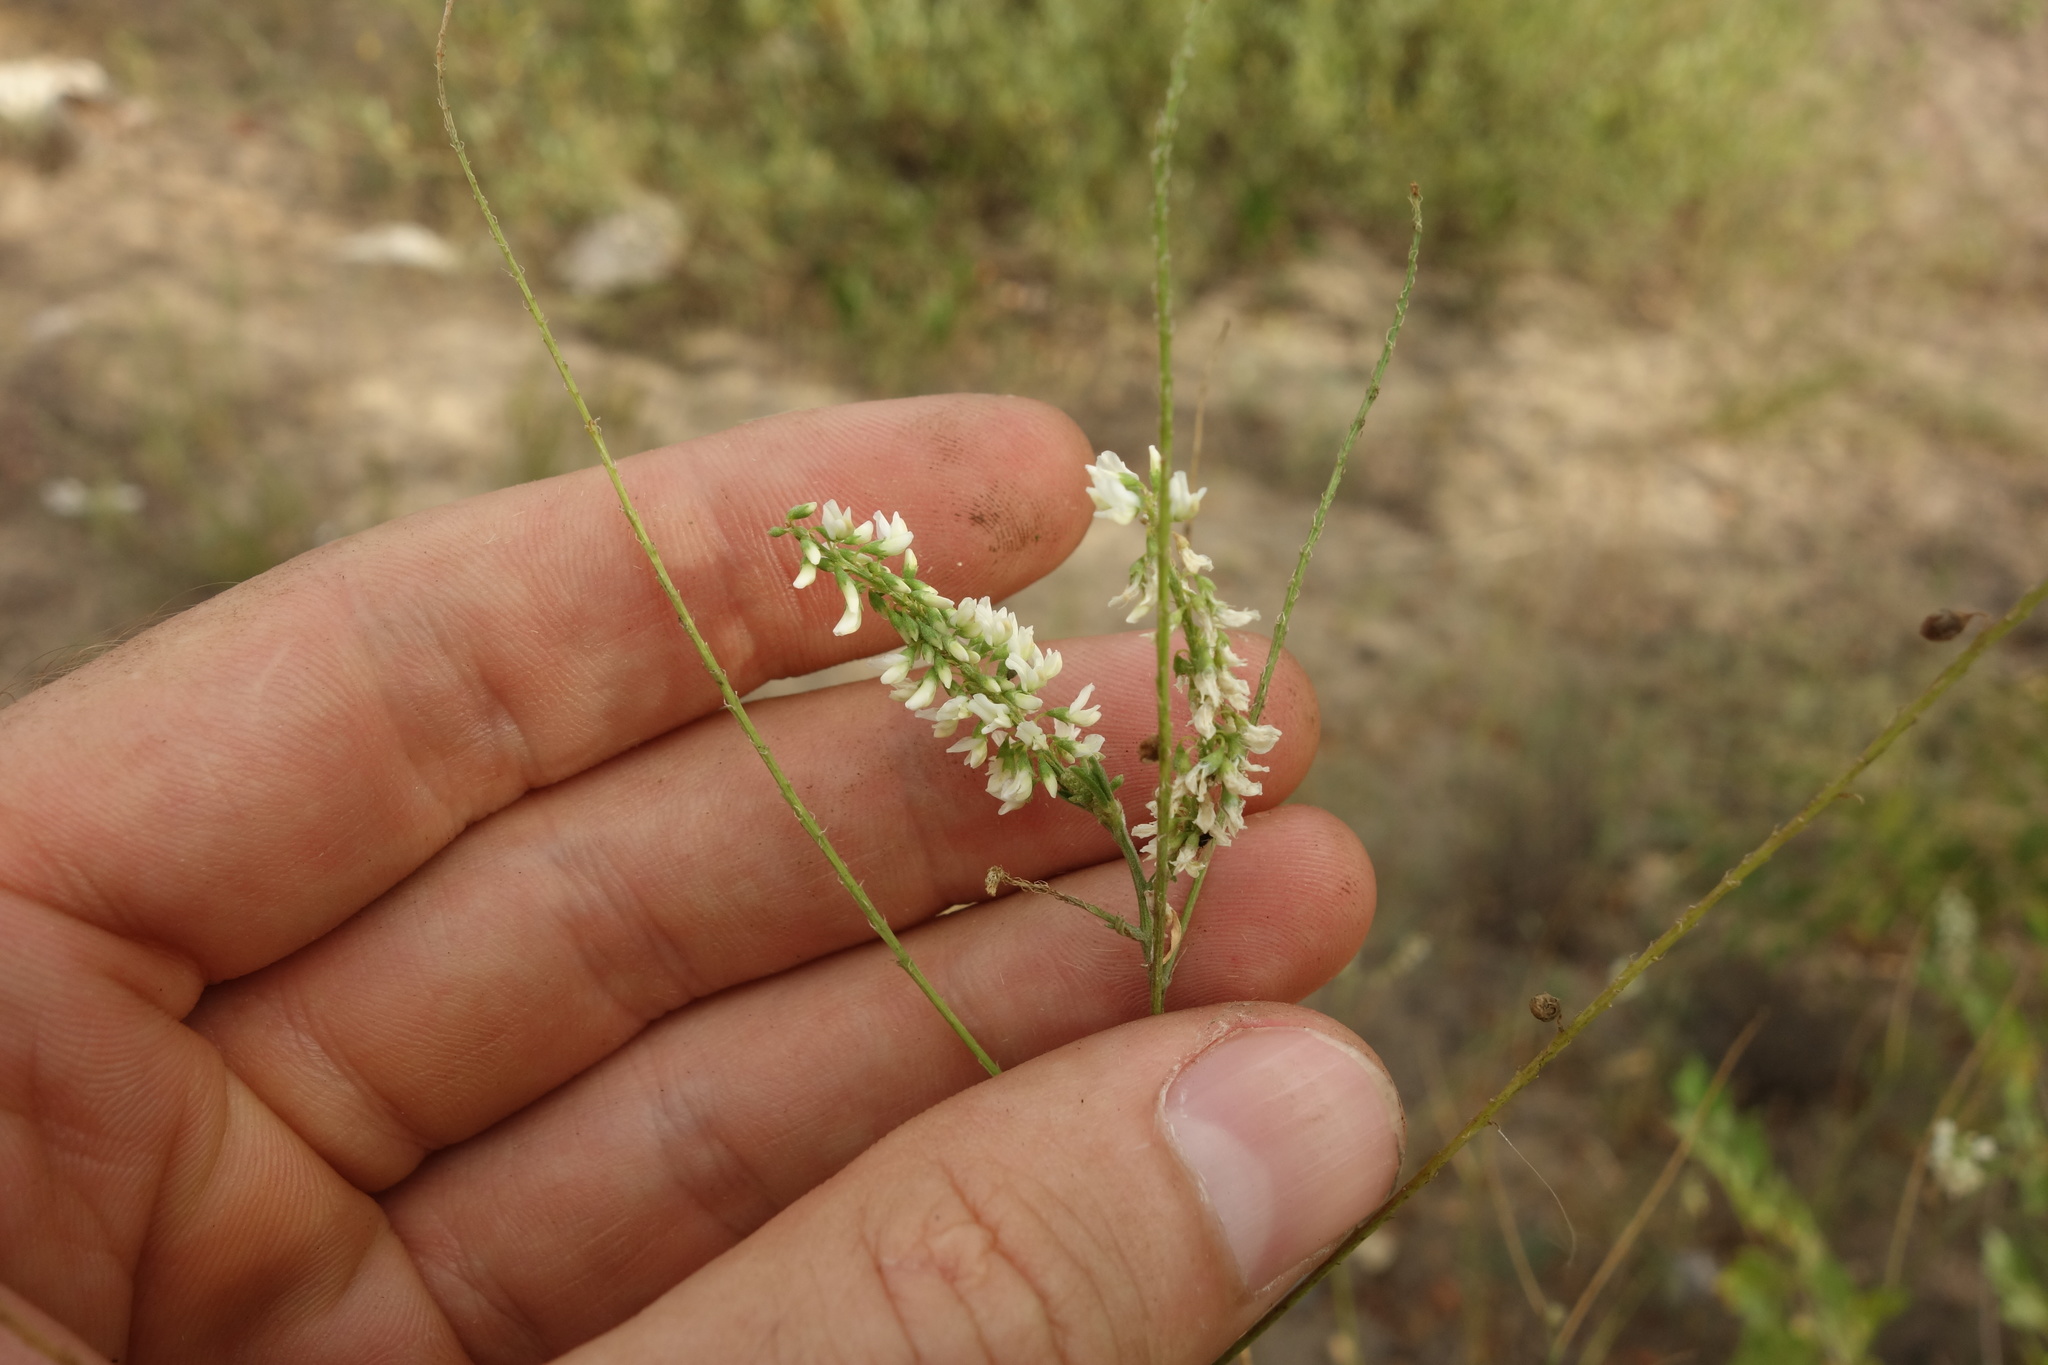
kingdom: Plantae
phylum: Tracheophyta
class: Magnoliopsida
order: Fabales
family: Fabaceae
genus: Melilotus
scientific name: Melilotus albus
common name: White melilot
